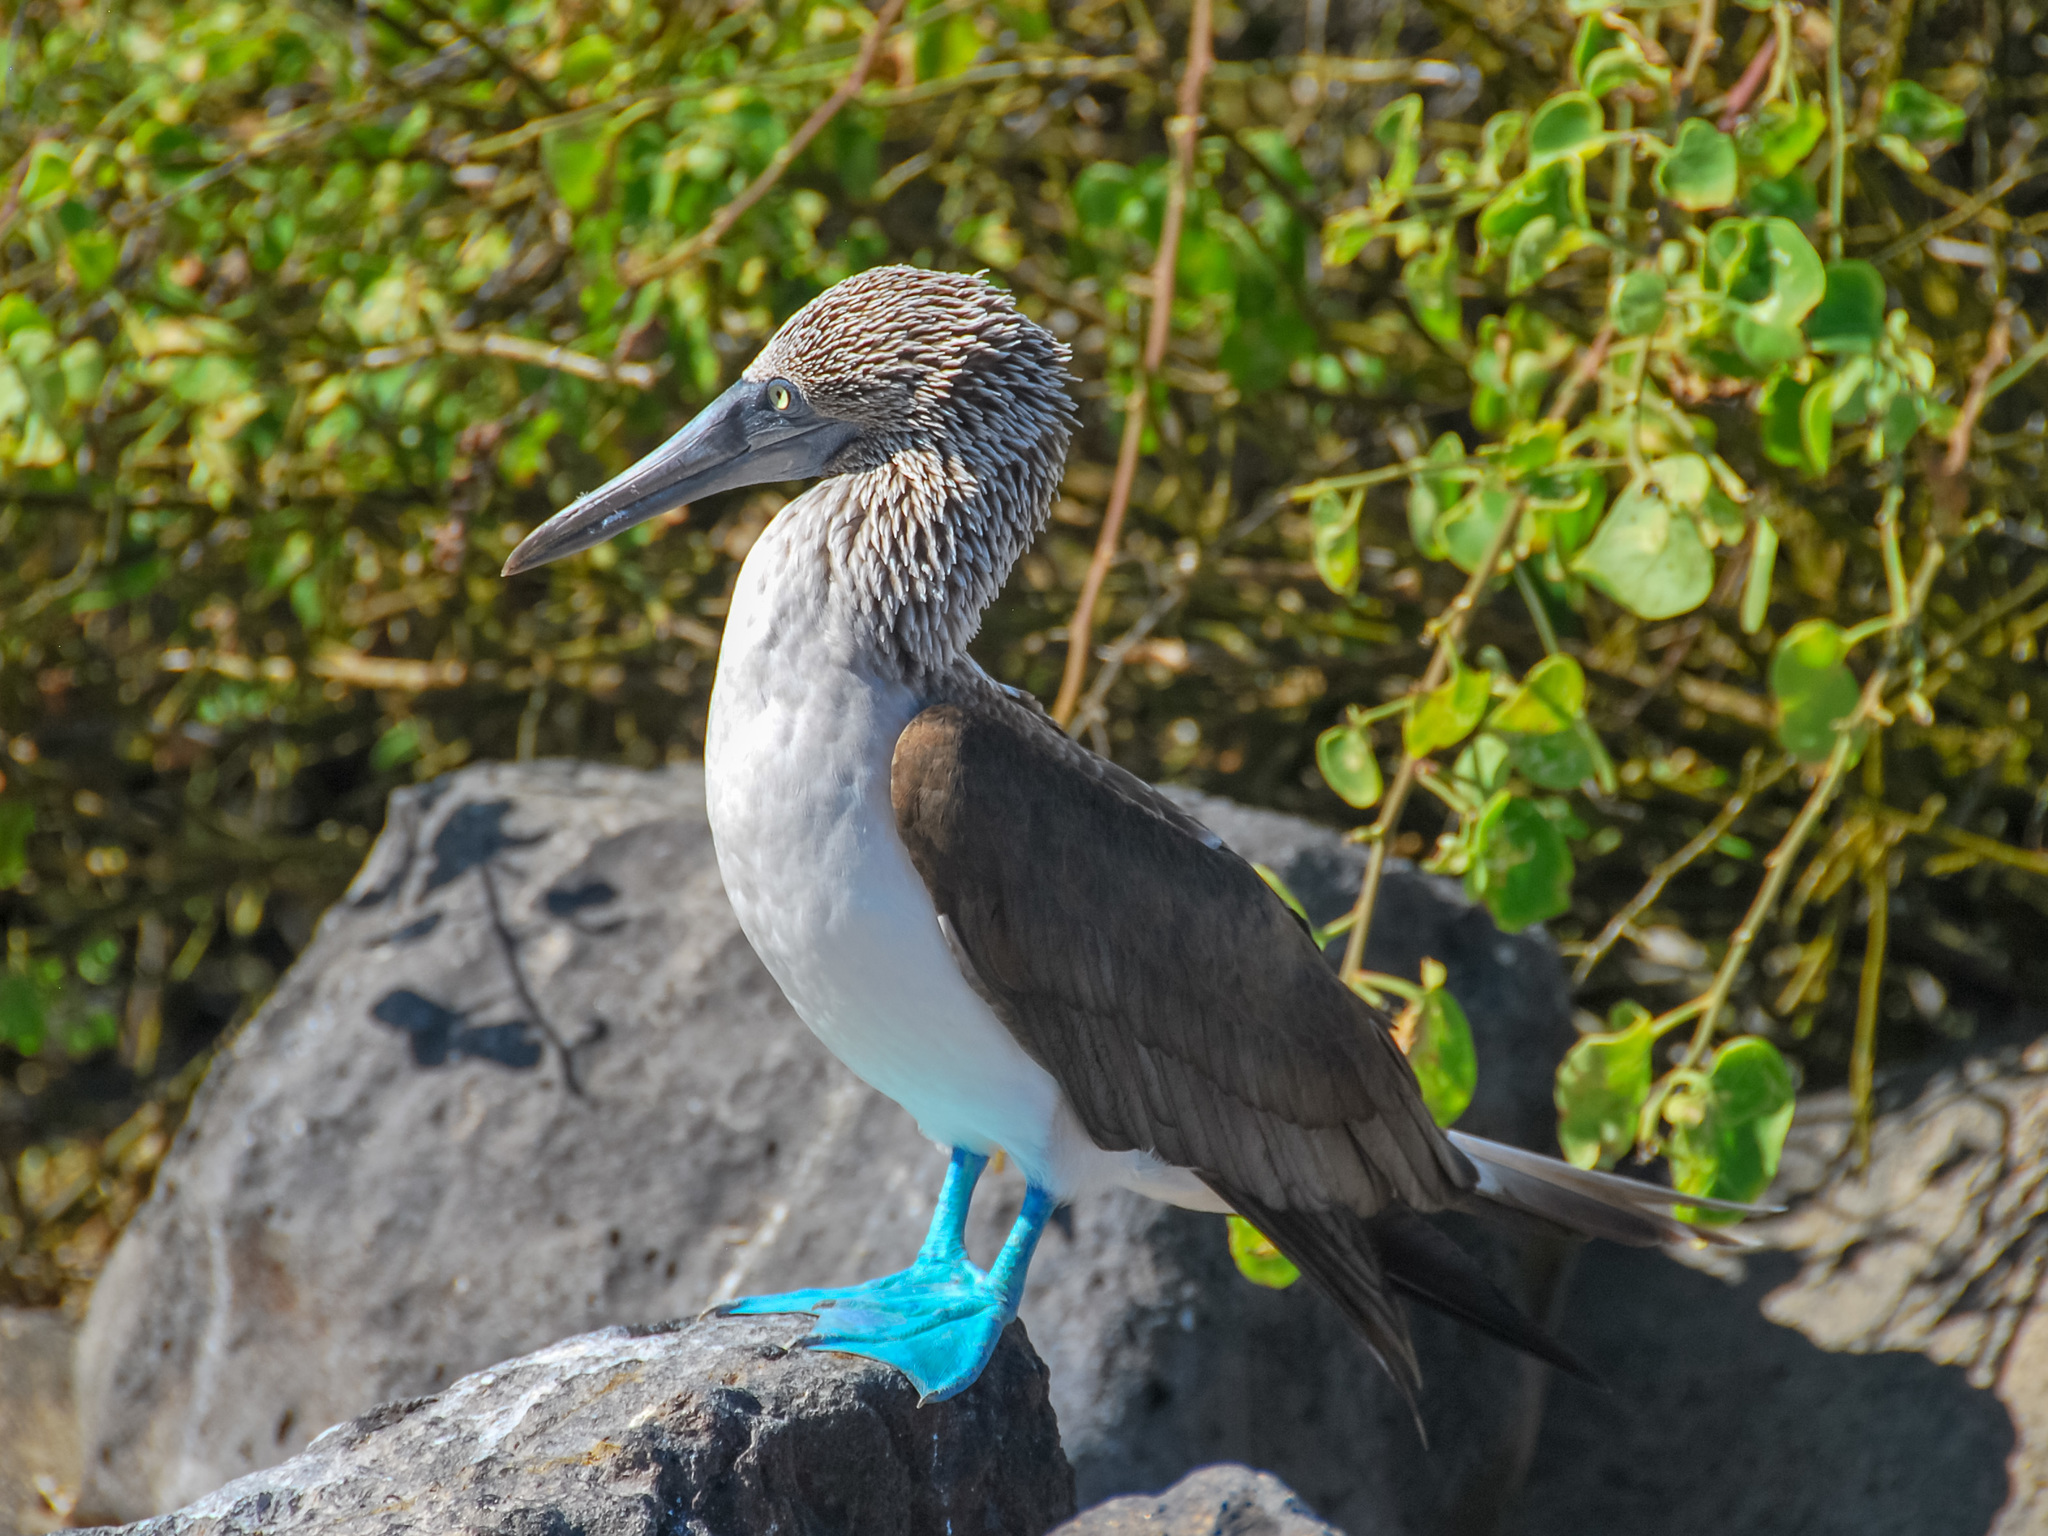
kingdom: Animalia
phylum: Chordata
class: Aves
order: Suliformes
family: Sulidae
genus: Sula
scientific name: Sula nebouxii
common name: Blue-footed booby
